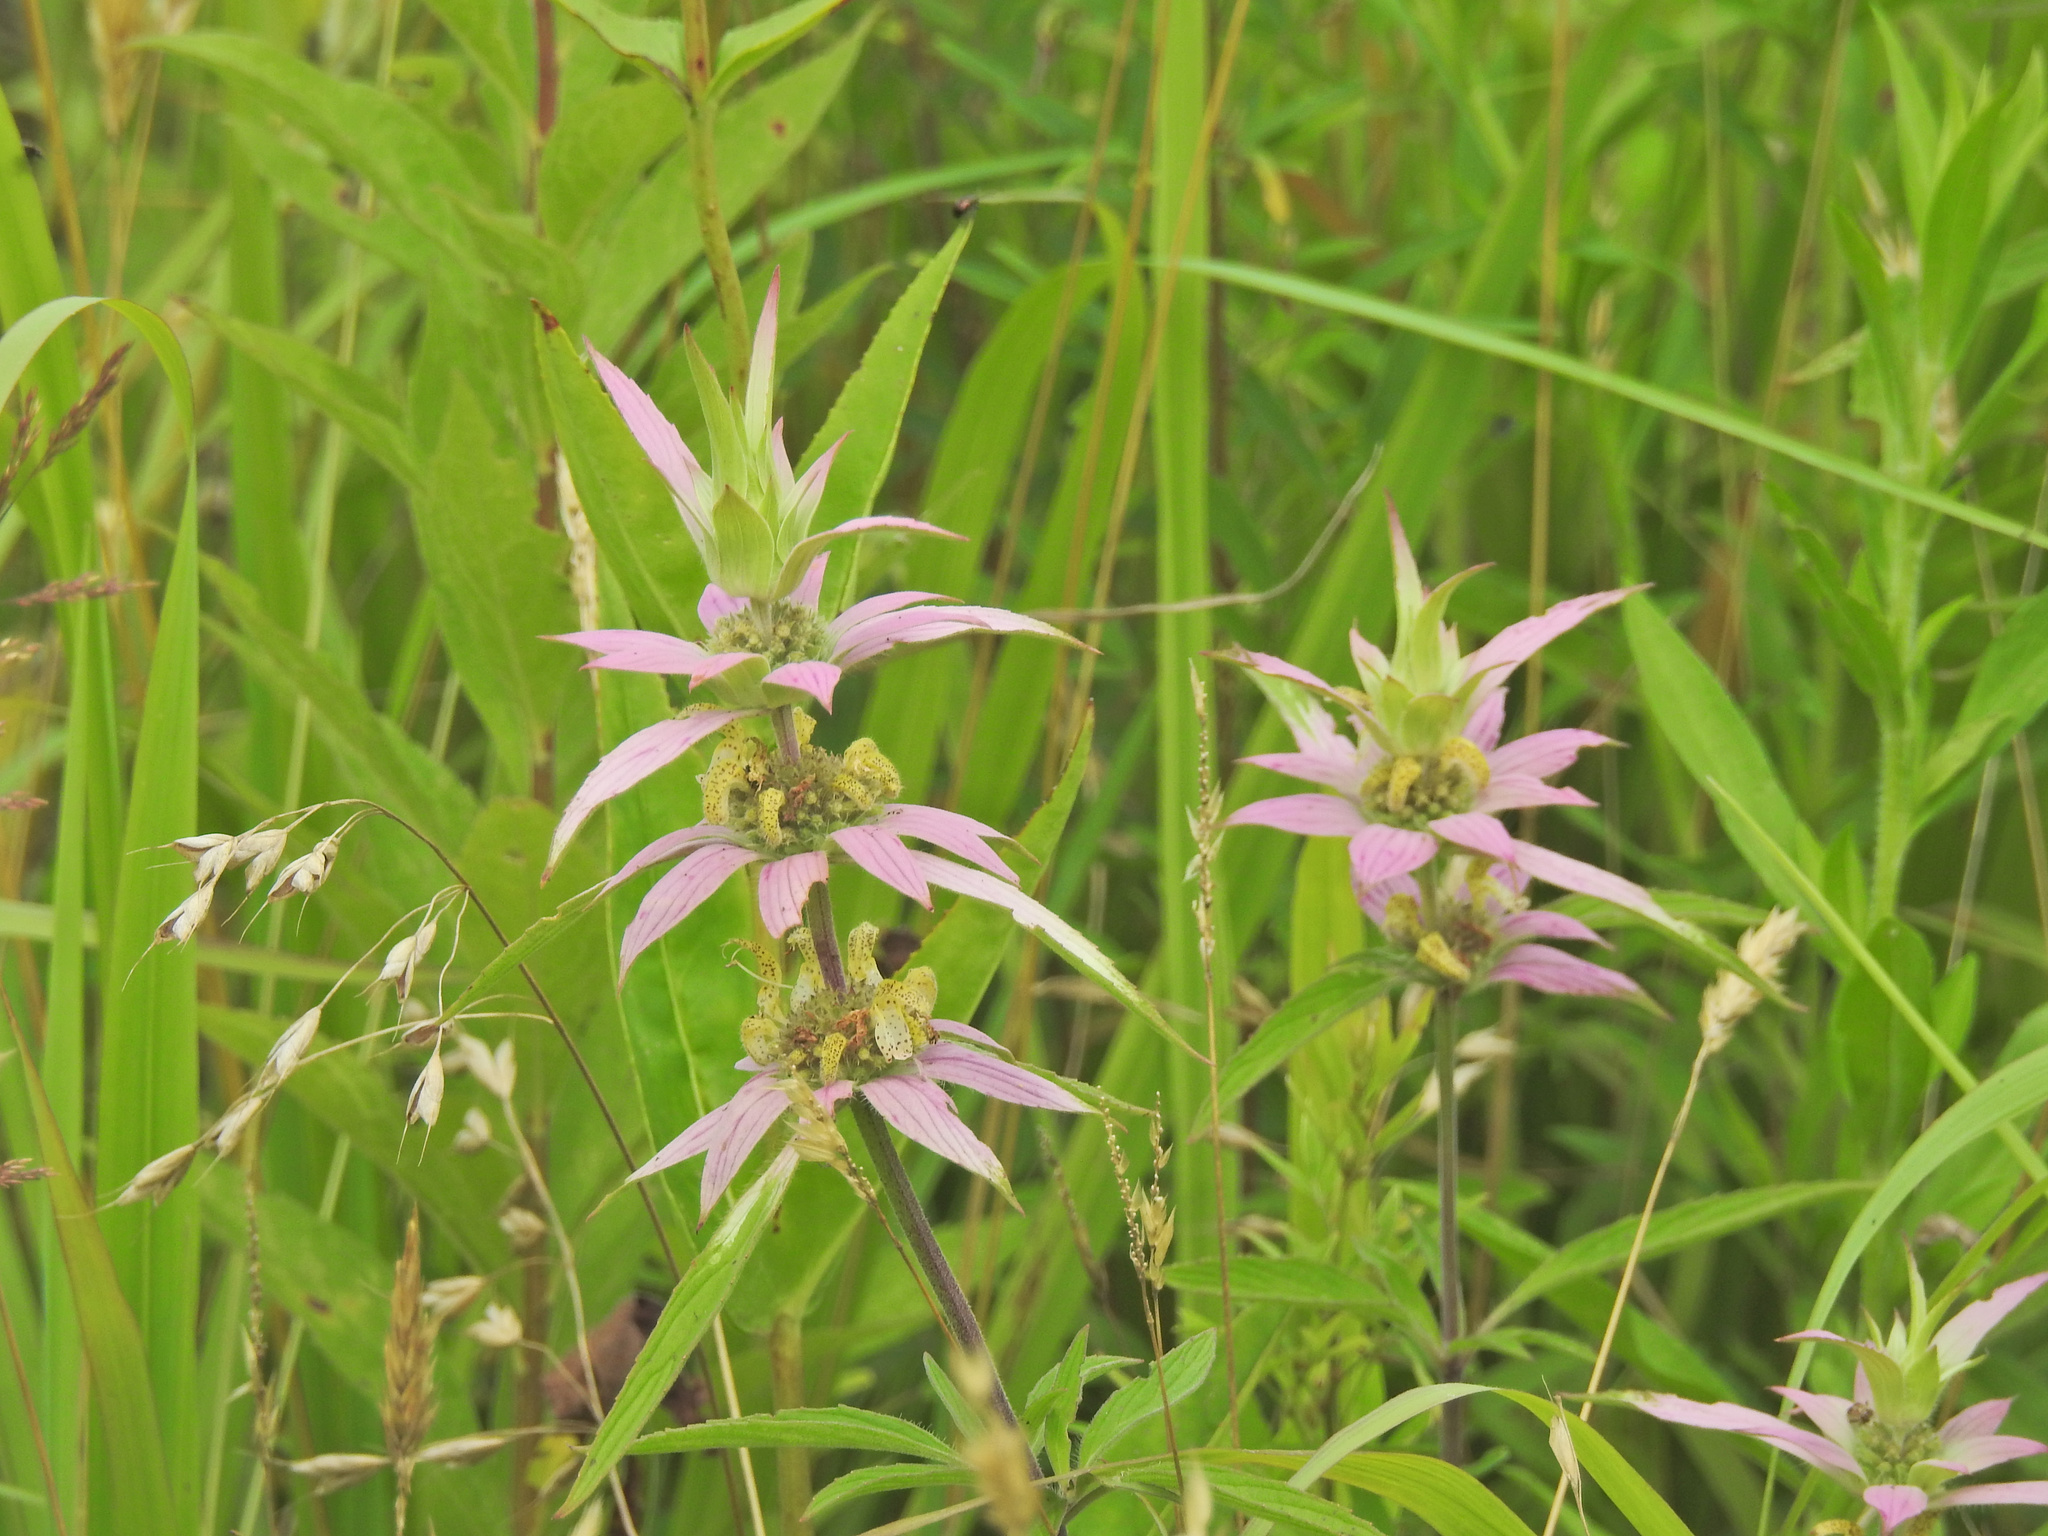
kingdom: Plantae
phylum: Tracheophyta
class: Magnoliopsida
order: Lamiales
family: Lamiaceae
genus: Monarda
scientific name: Monarda punctata
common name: Dotted monarda
